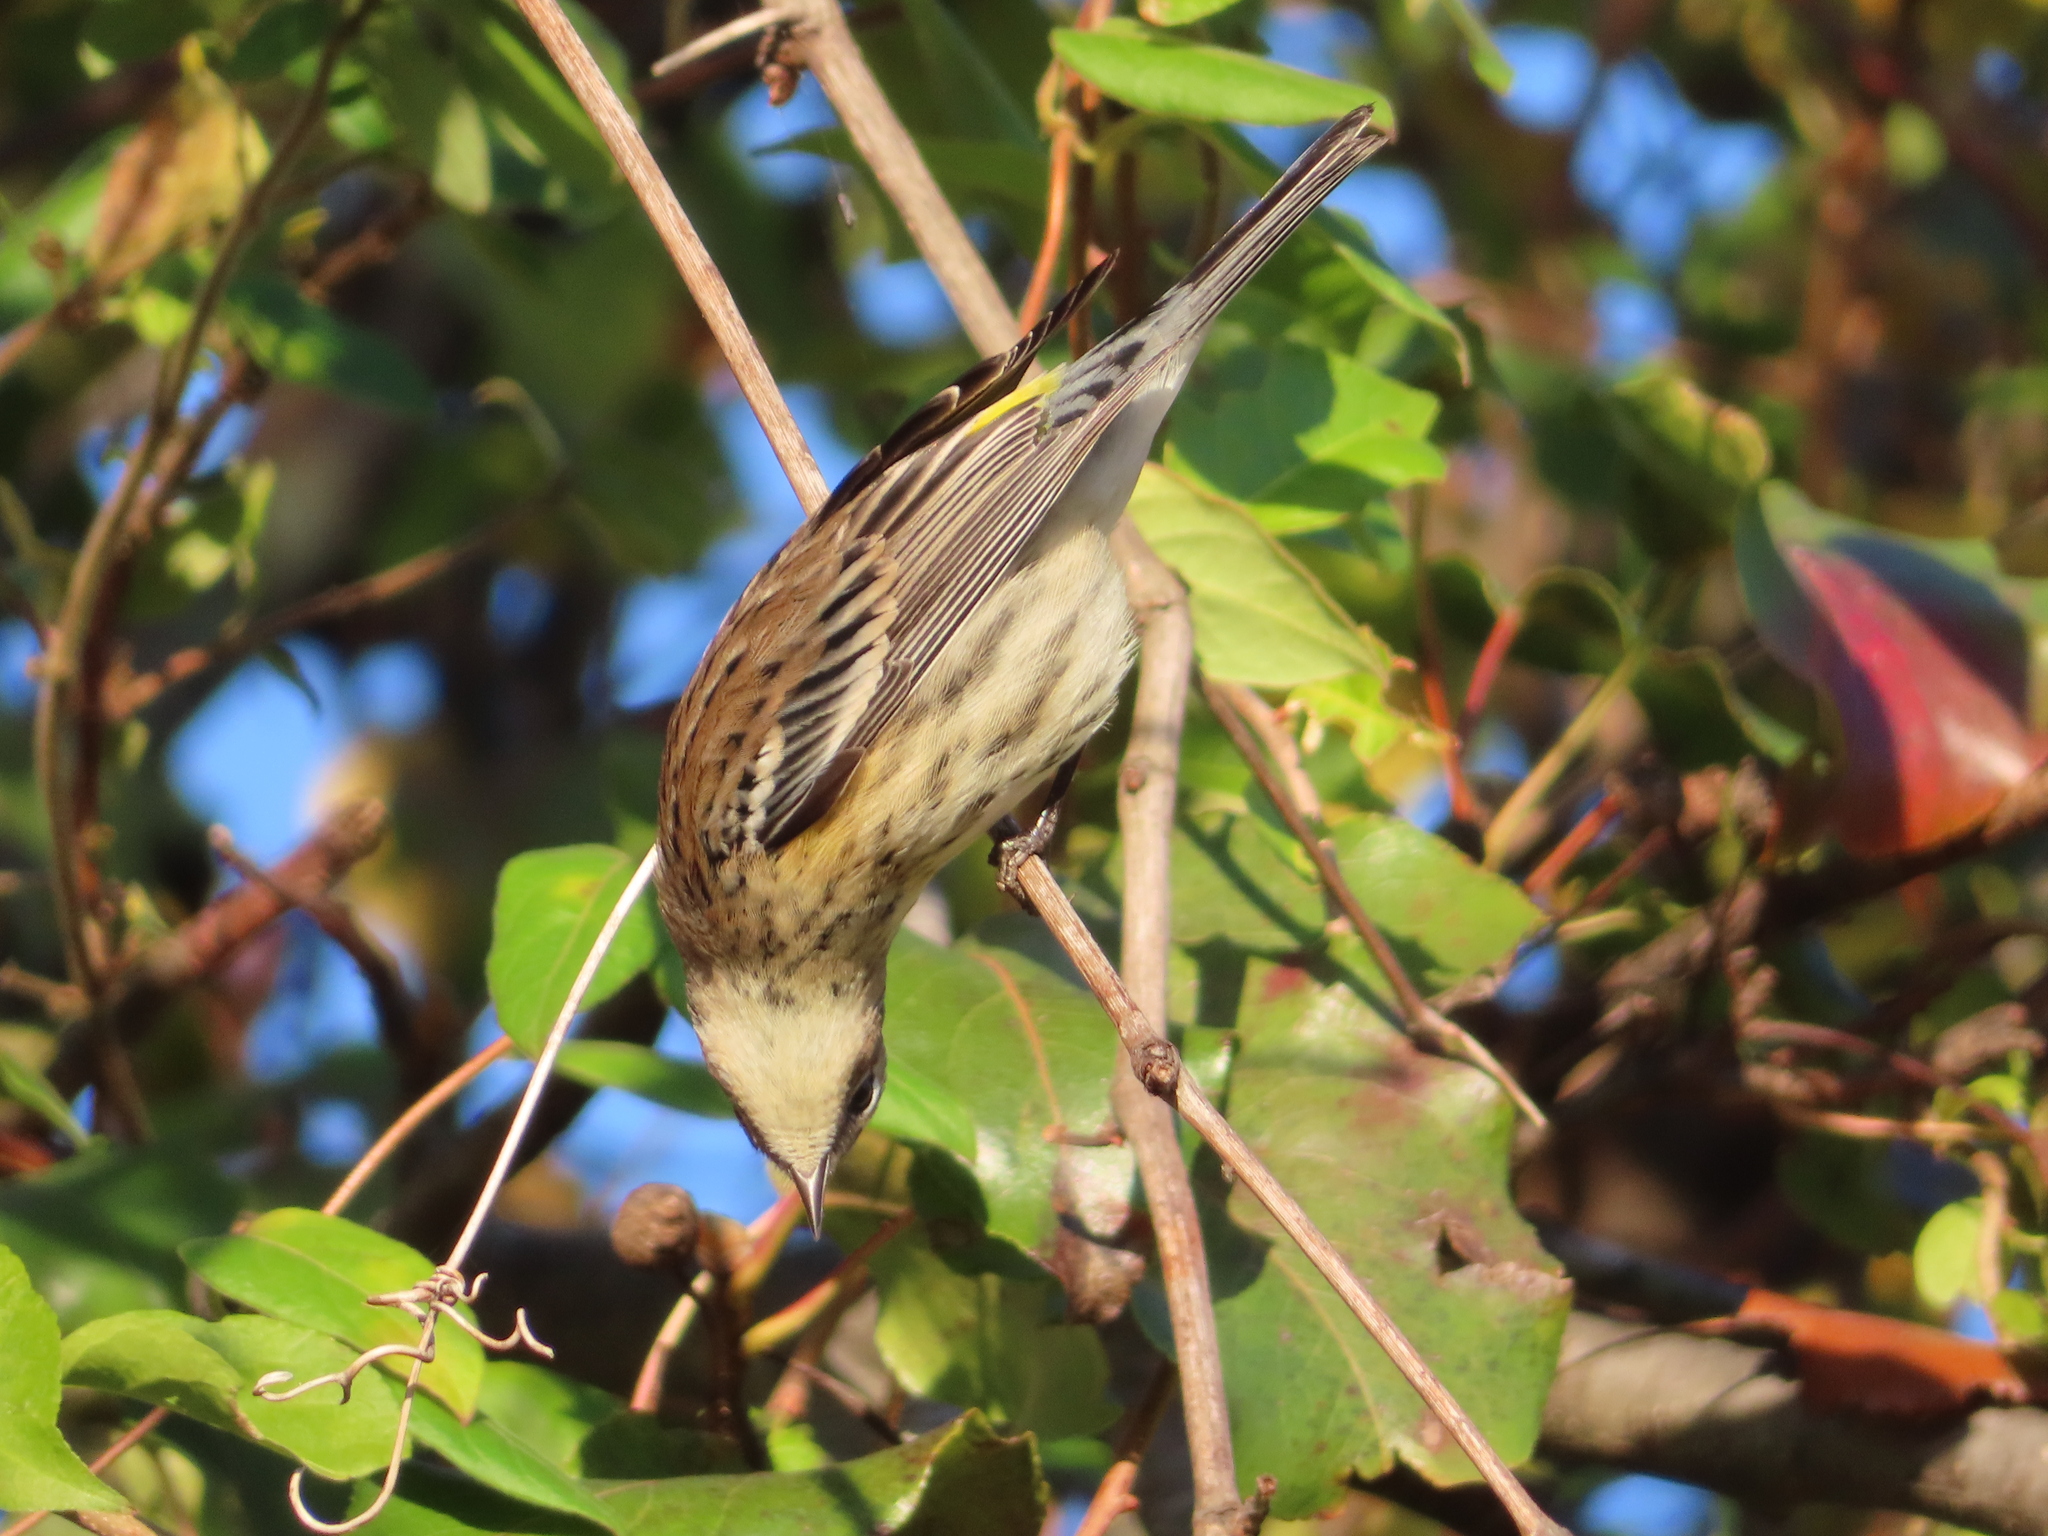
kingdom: Animalia
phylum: Chordata
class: Aves
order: Passeriformes
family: Parulidae
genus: Setophaga
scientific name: Setophaga coronata
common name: Myrtle warbler
